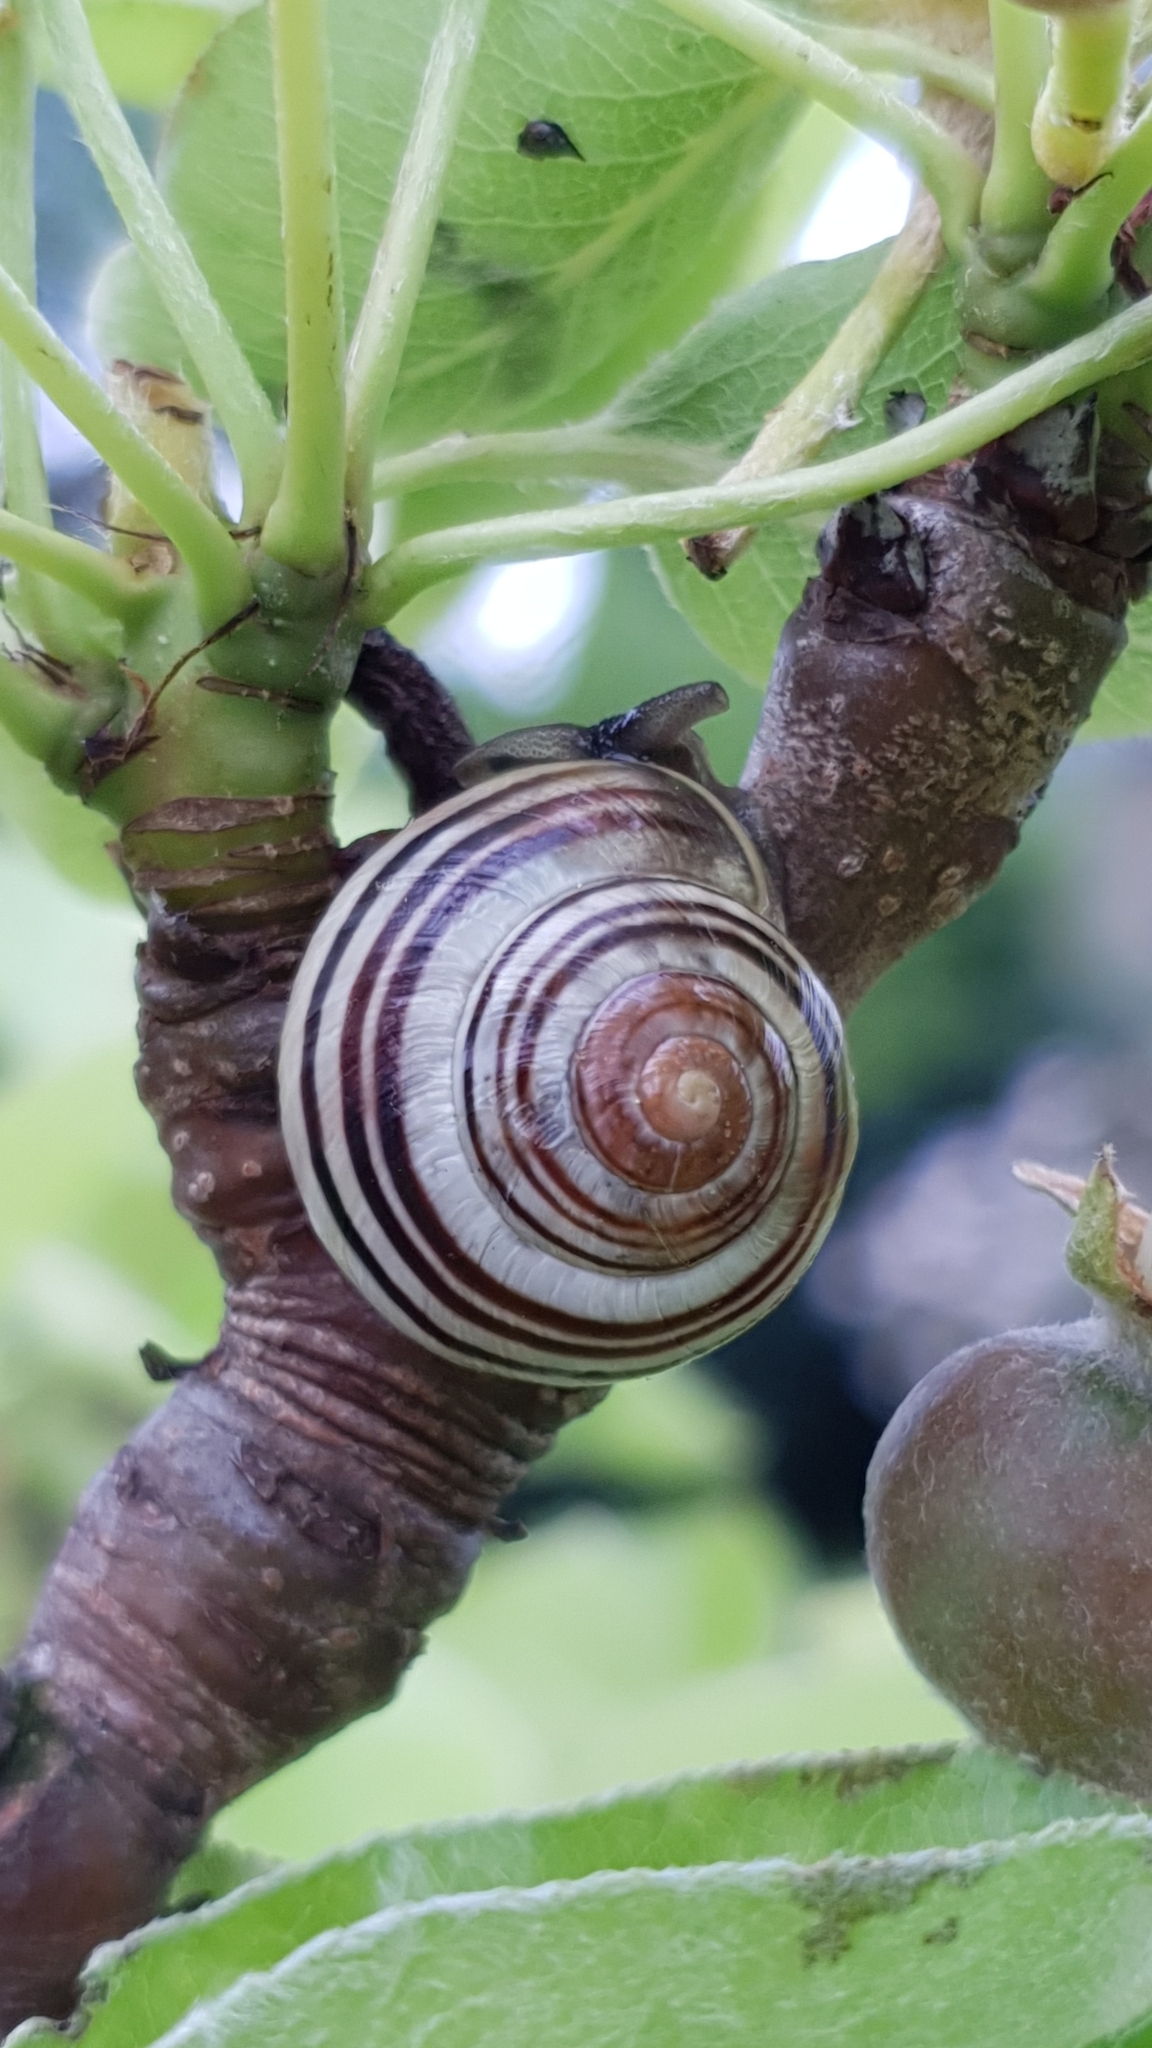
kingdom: Animalia
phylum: Mollusca
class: Gastropoda
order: Stylommatophora
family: Helicidae
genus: Cepaea
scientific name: Cepaea
